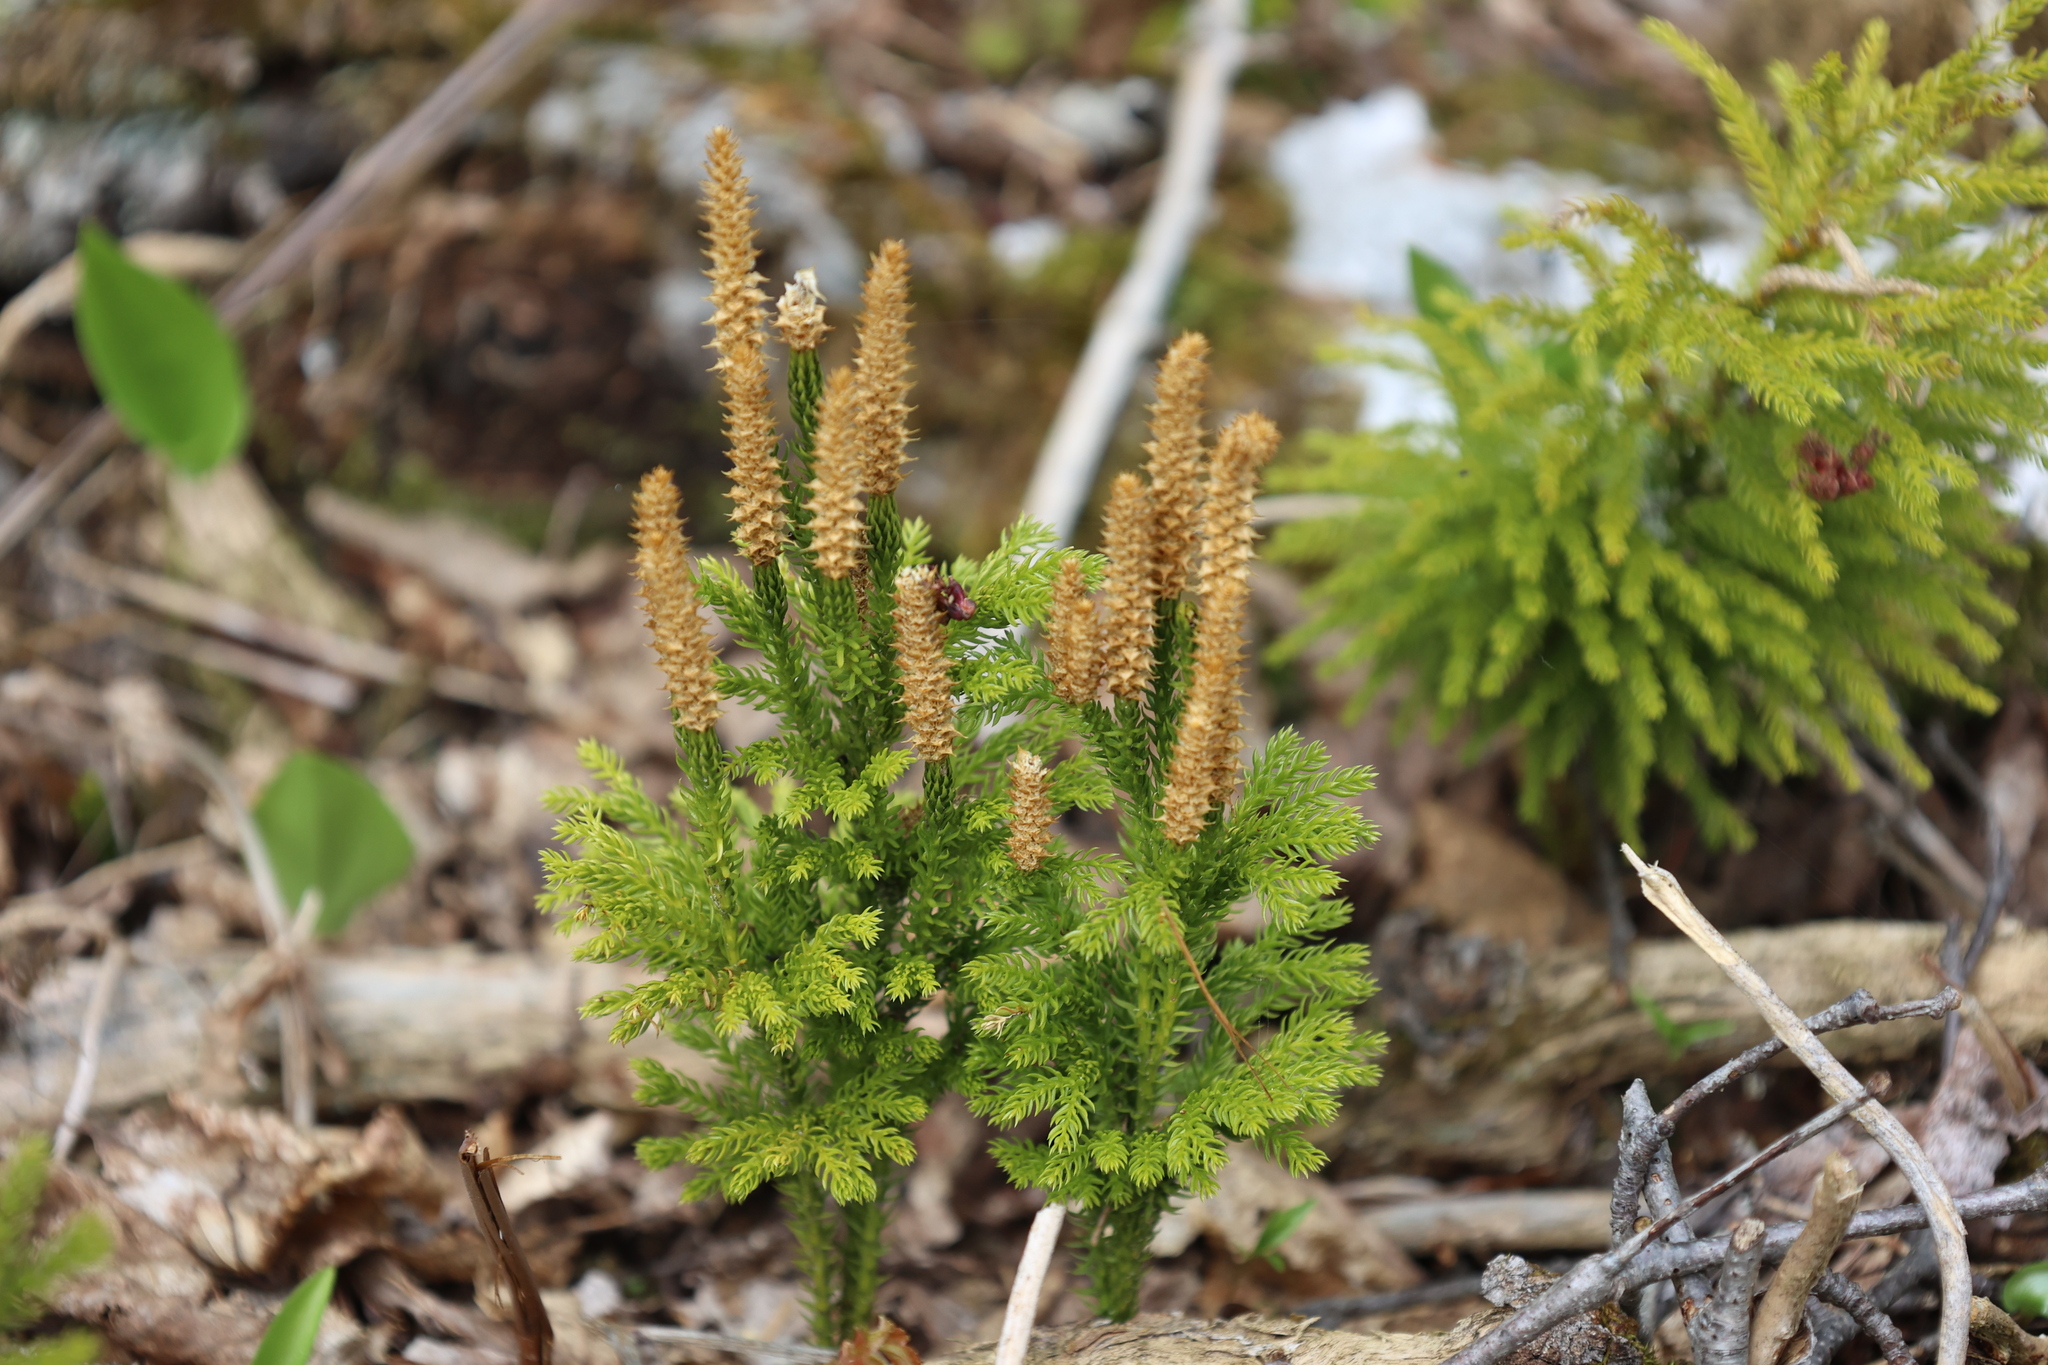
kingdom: Plantae
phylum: Tracheophyta
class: Lycopodiopsida
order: Lycopodiales
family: Lycopodiaceae
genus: Dendrolycopodium
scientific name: Dendrolycopodium dendroideum
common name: Northern tree-clubmoss
